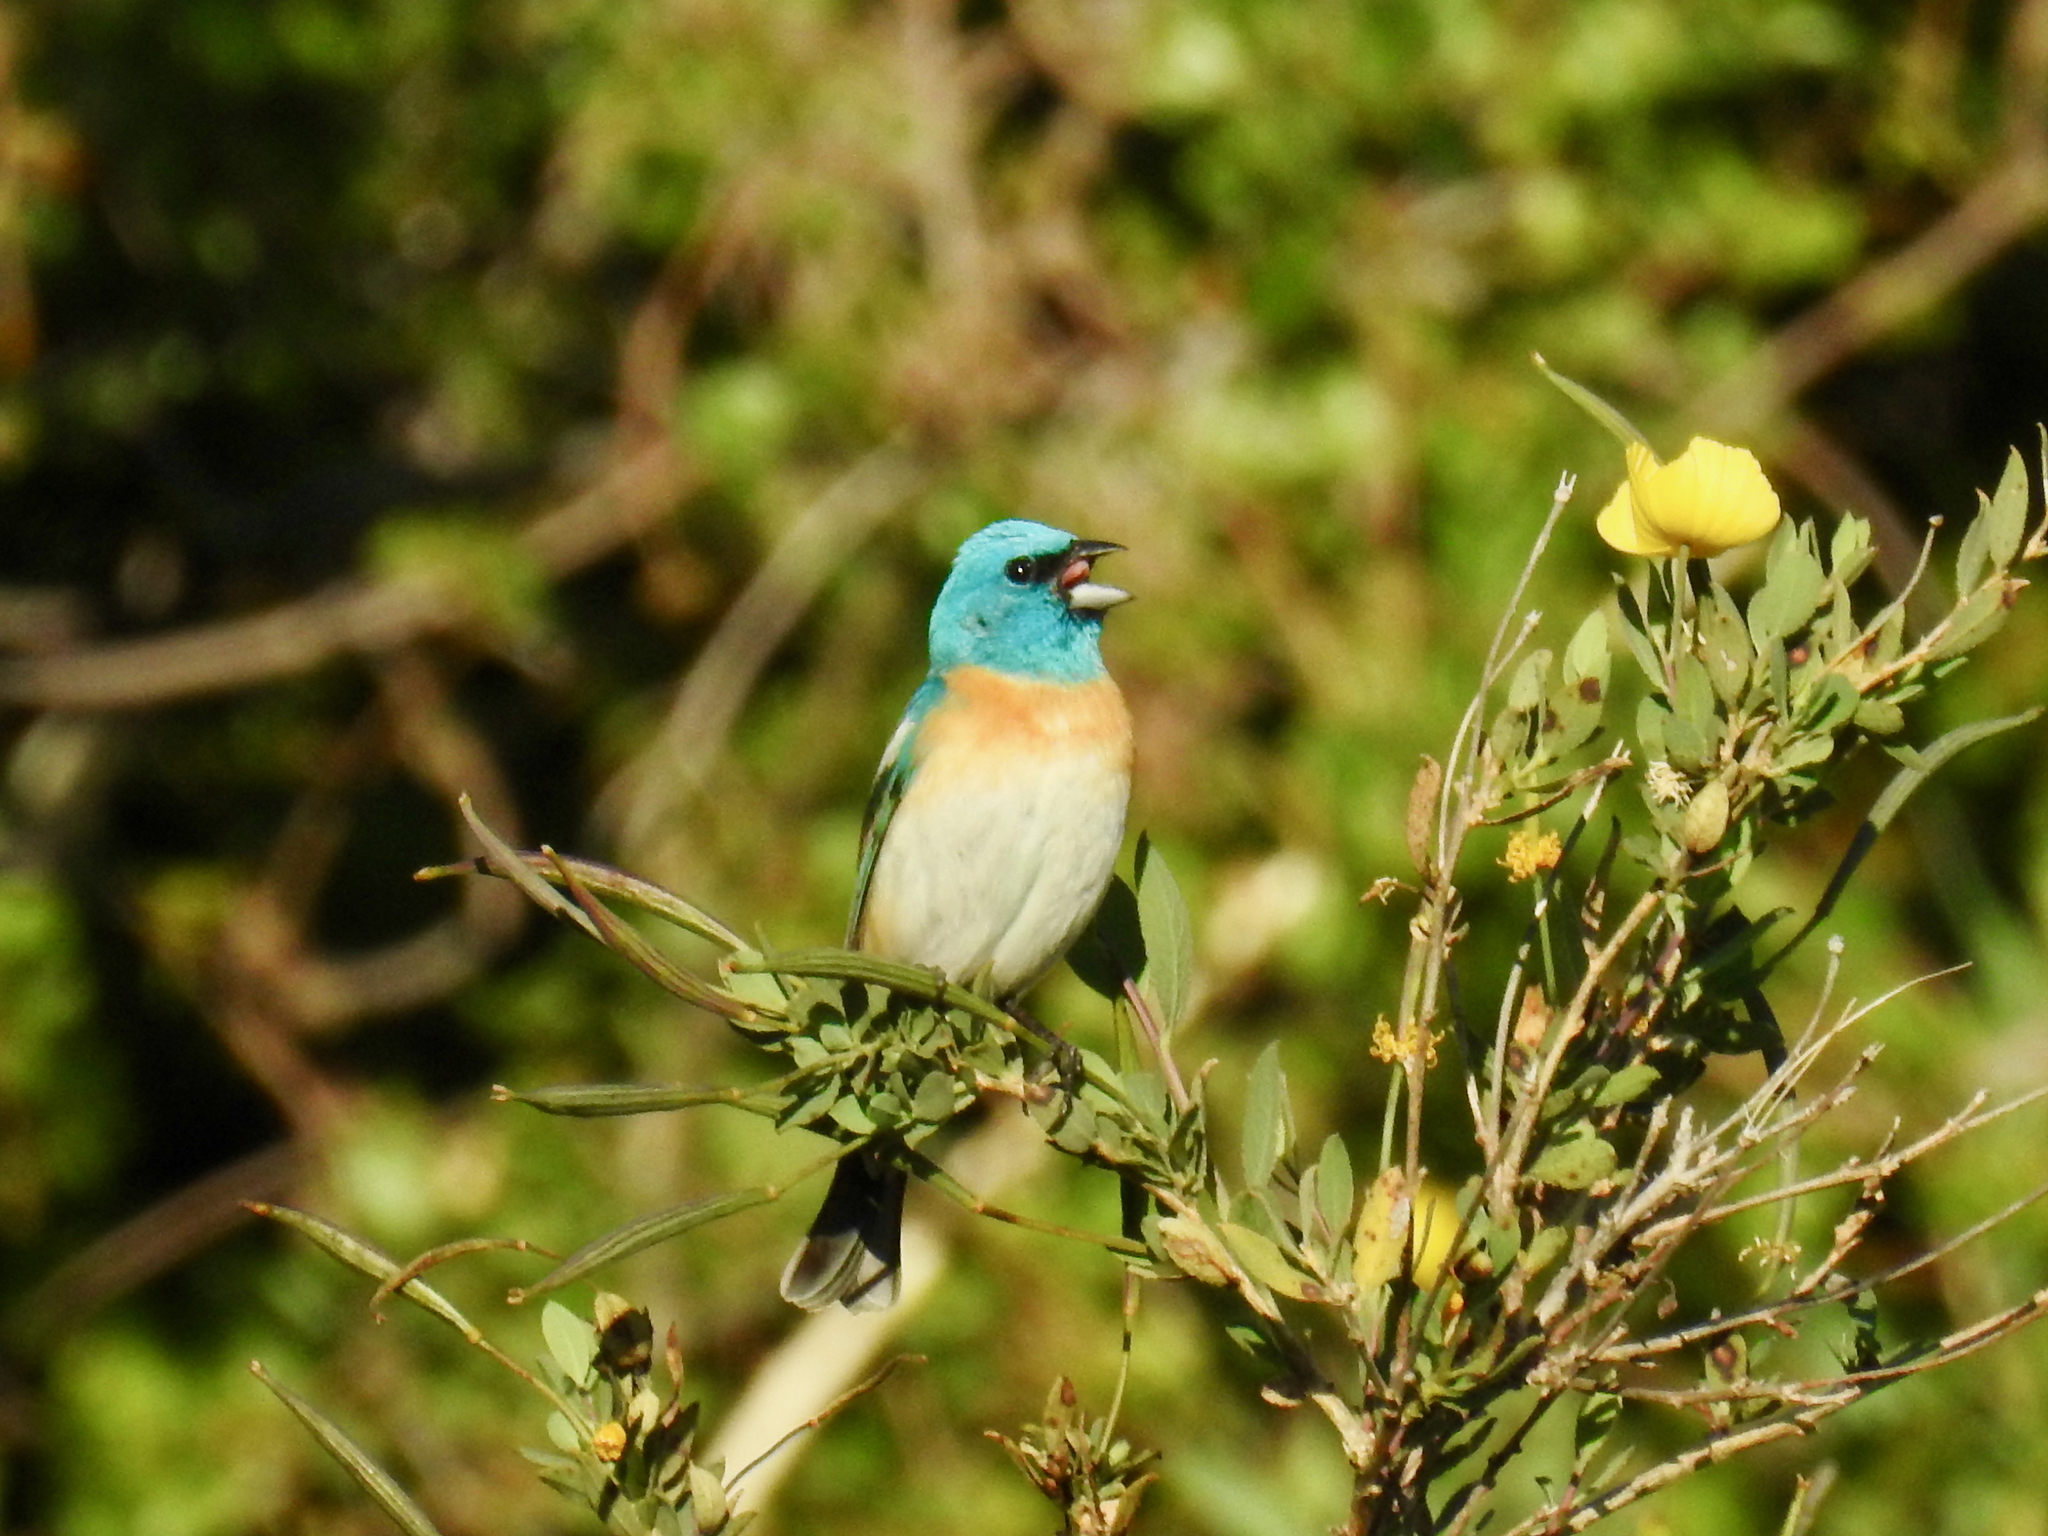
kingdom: Animalia
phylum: Chordata
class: Aves
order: Passeriformes
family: Cardinalidae
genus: Passerina
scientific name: Passerina amoena
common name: Lazuli bunting
